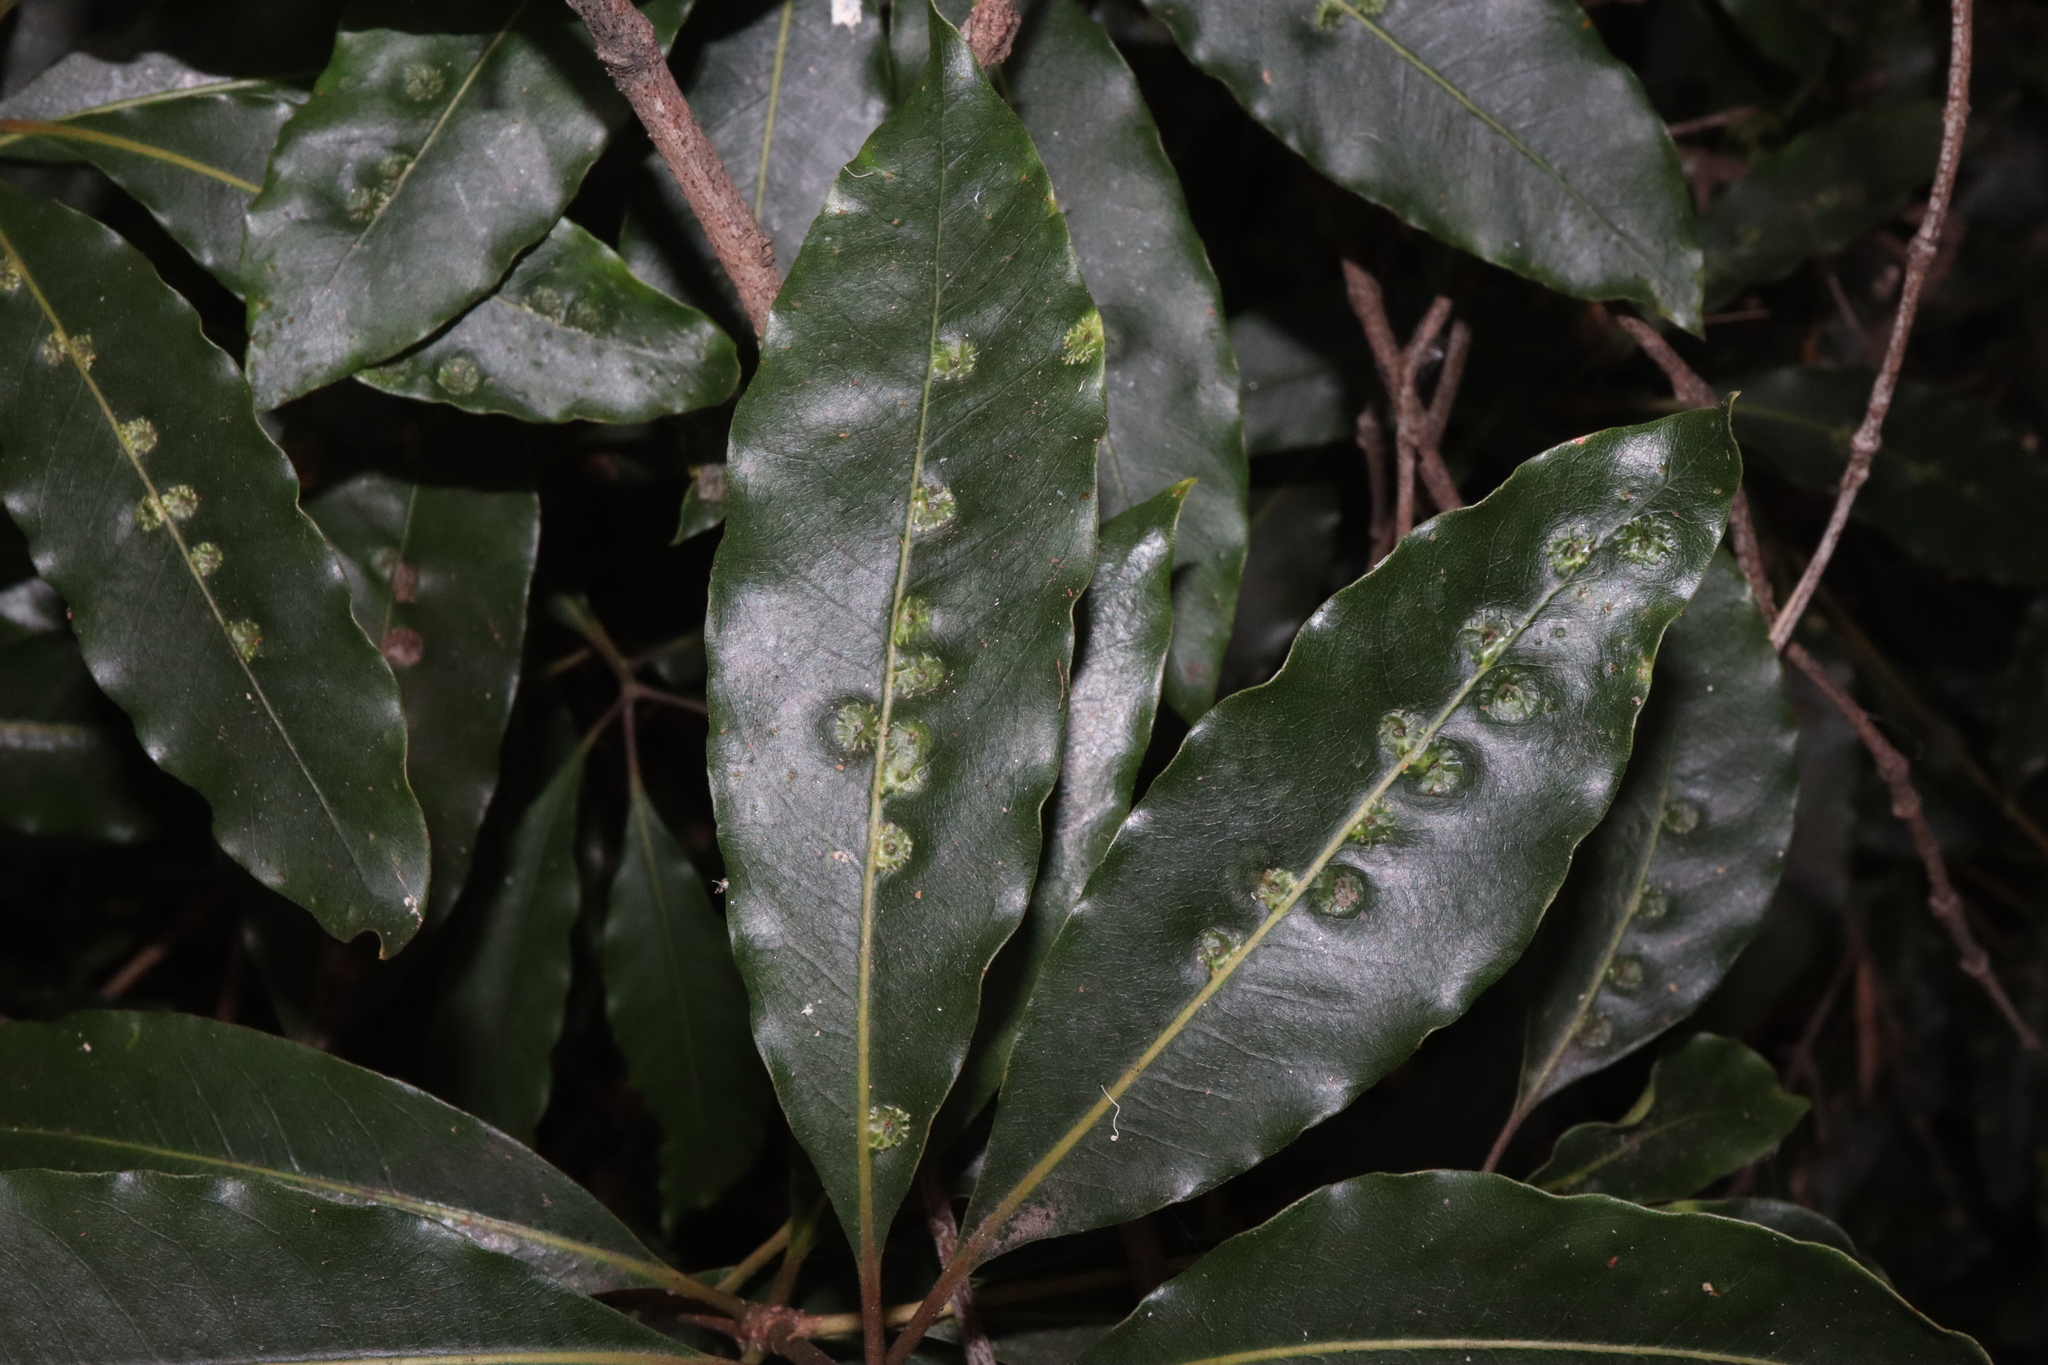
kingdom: Animalia
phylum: Arthropoda
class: Insecta
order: Diptera
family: Agromyzidae
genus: Phytoliriomyza
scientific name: Phytoliriomyza pittosporophylli
